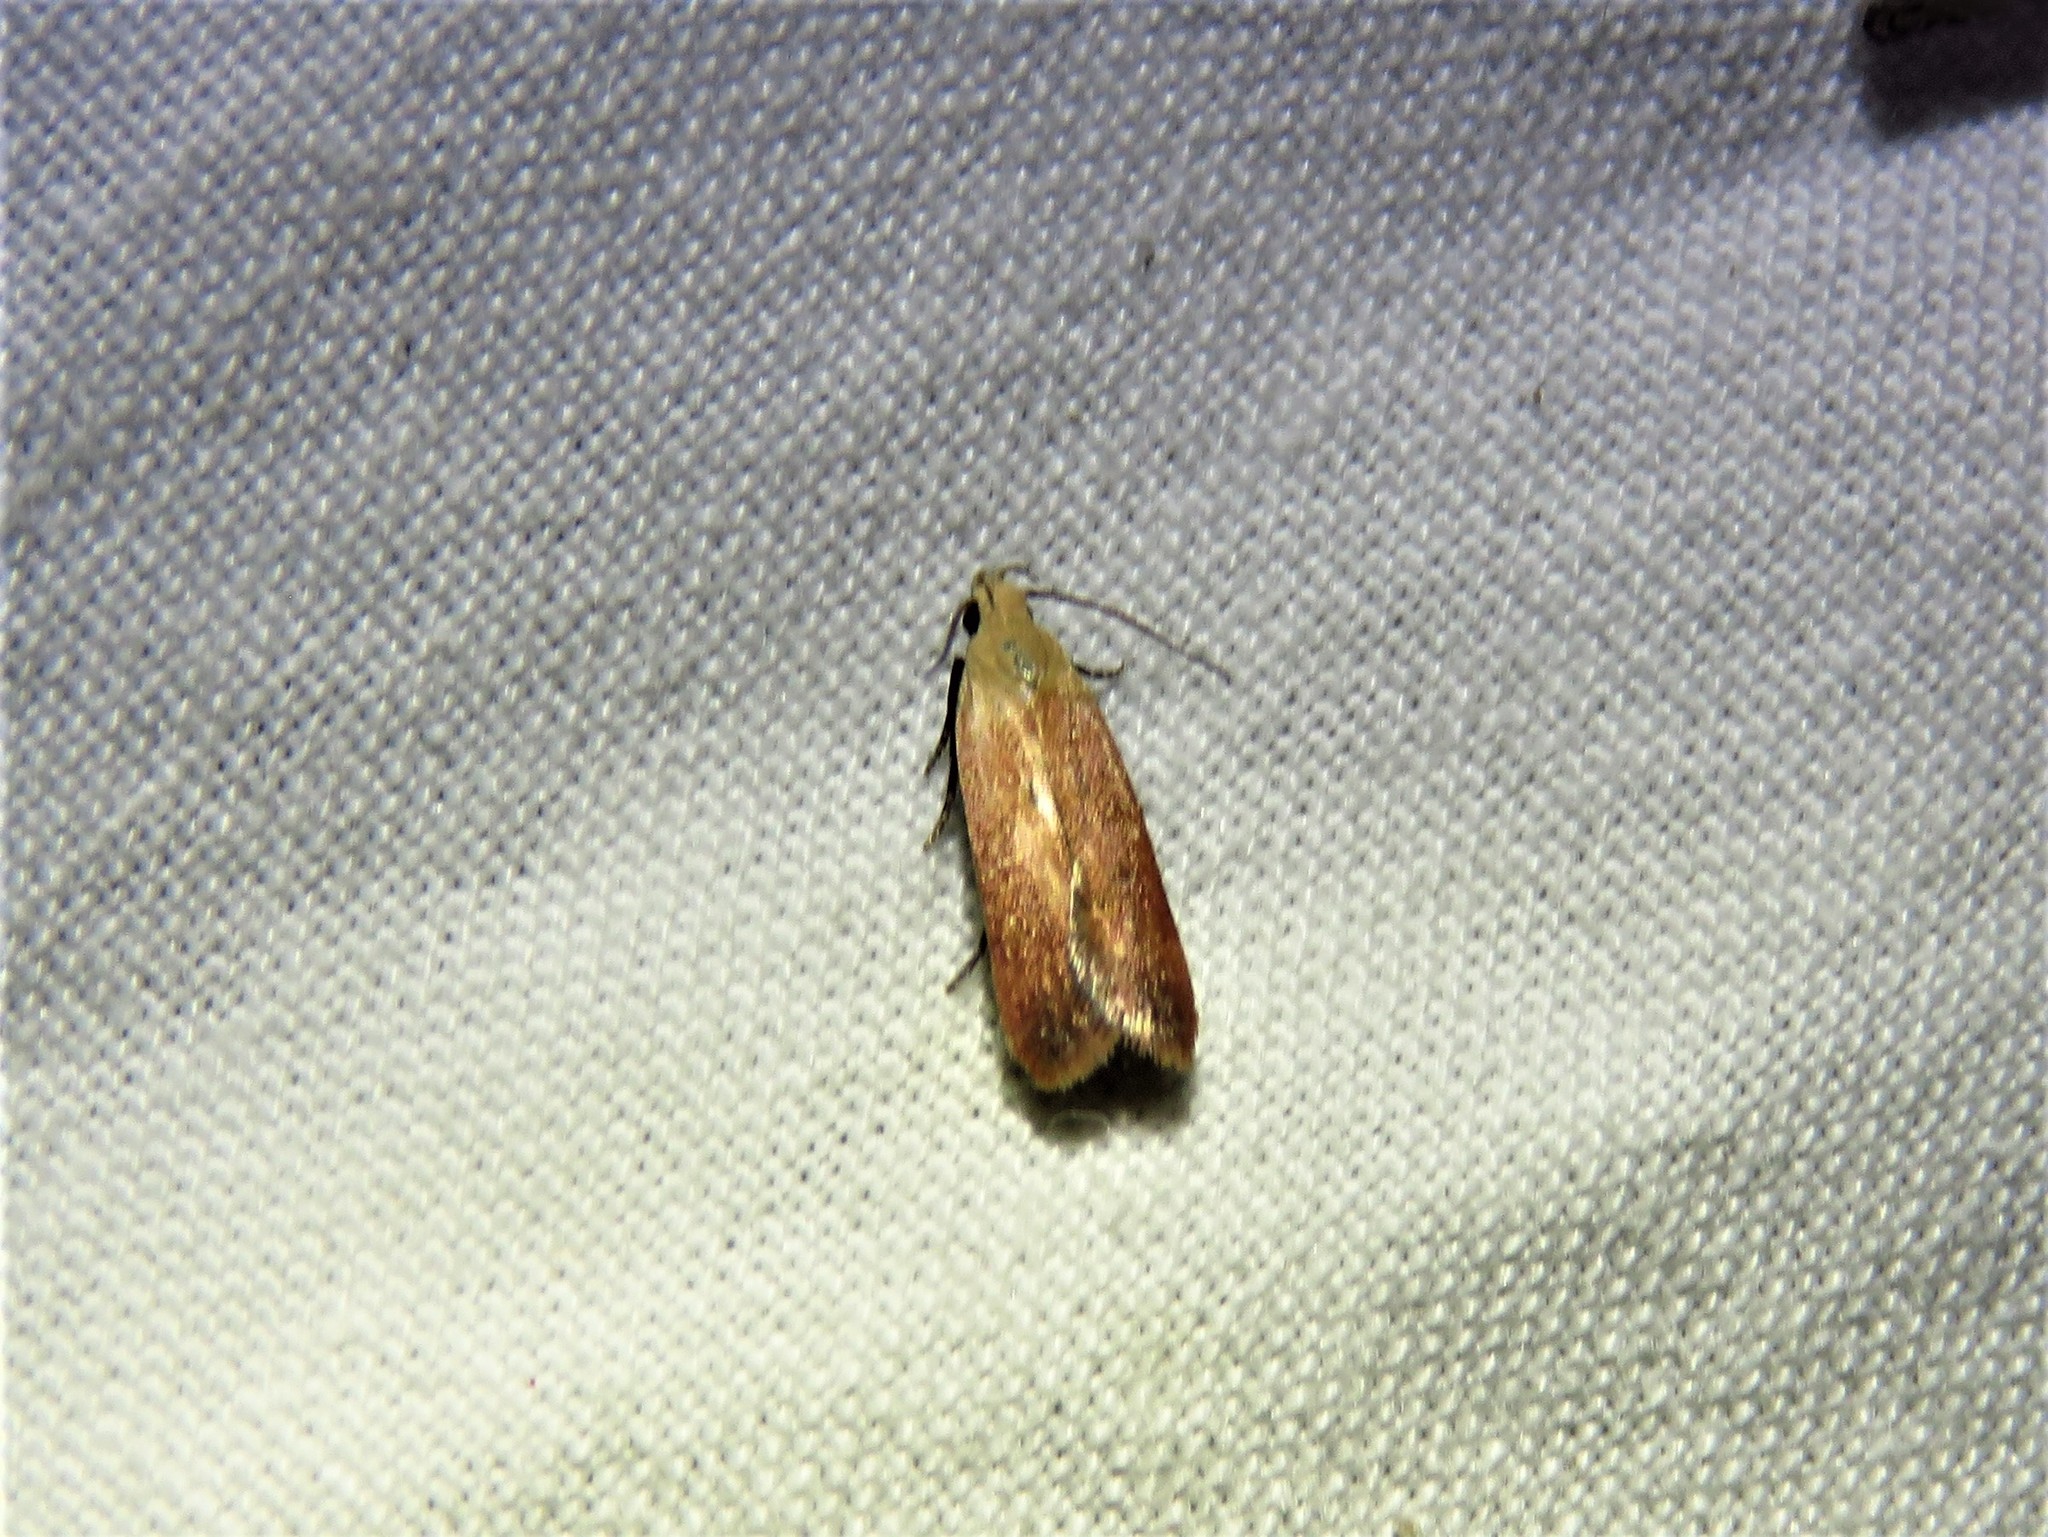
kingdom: Animalia
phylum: Arthropoda
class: Insecta
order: Lepidoptera
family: Gelechiidae
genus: Anacampsis
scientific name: Anacampsis fullonella
